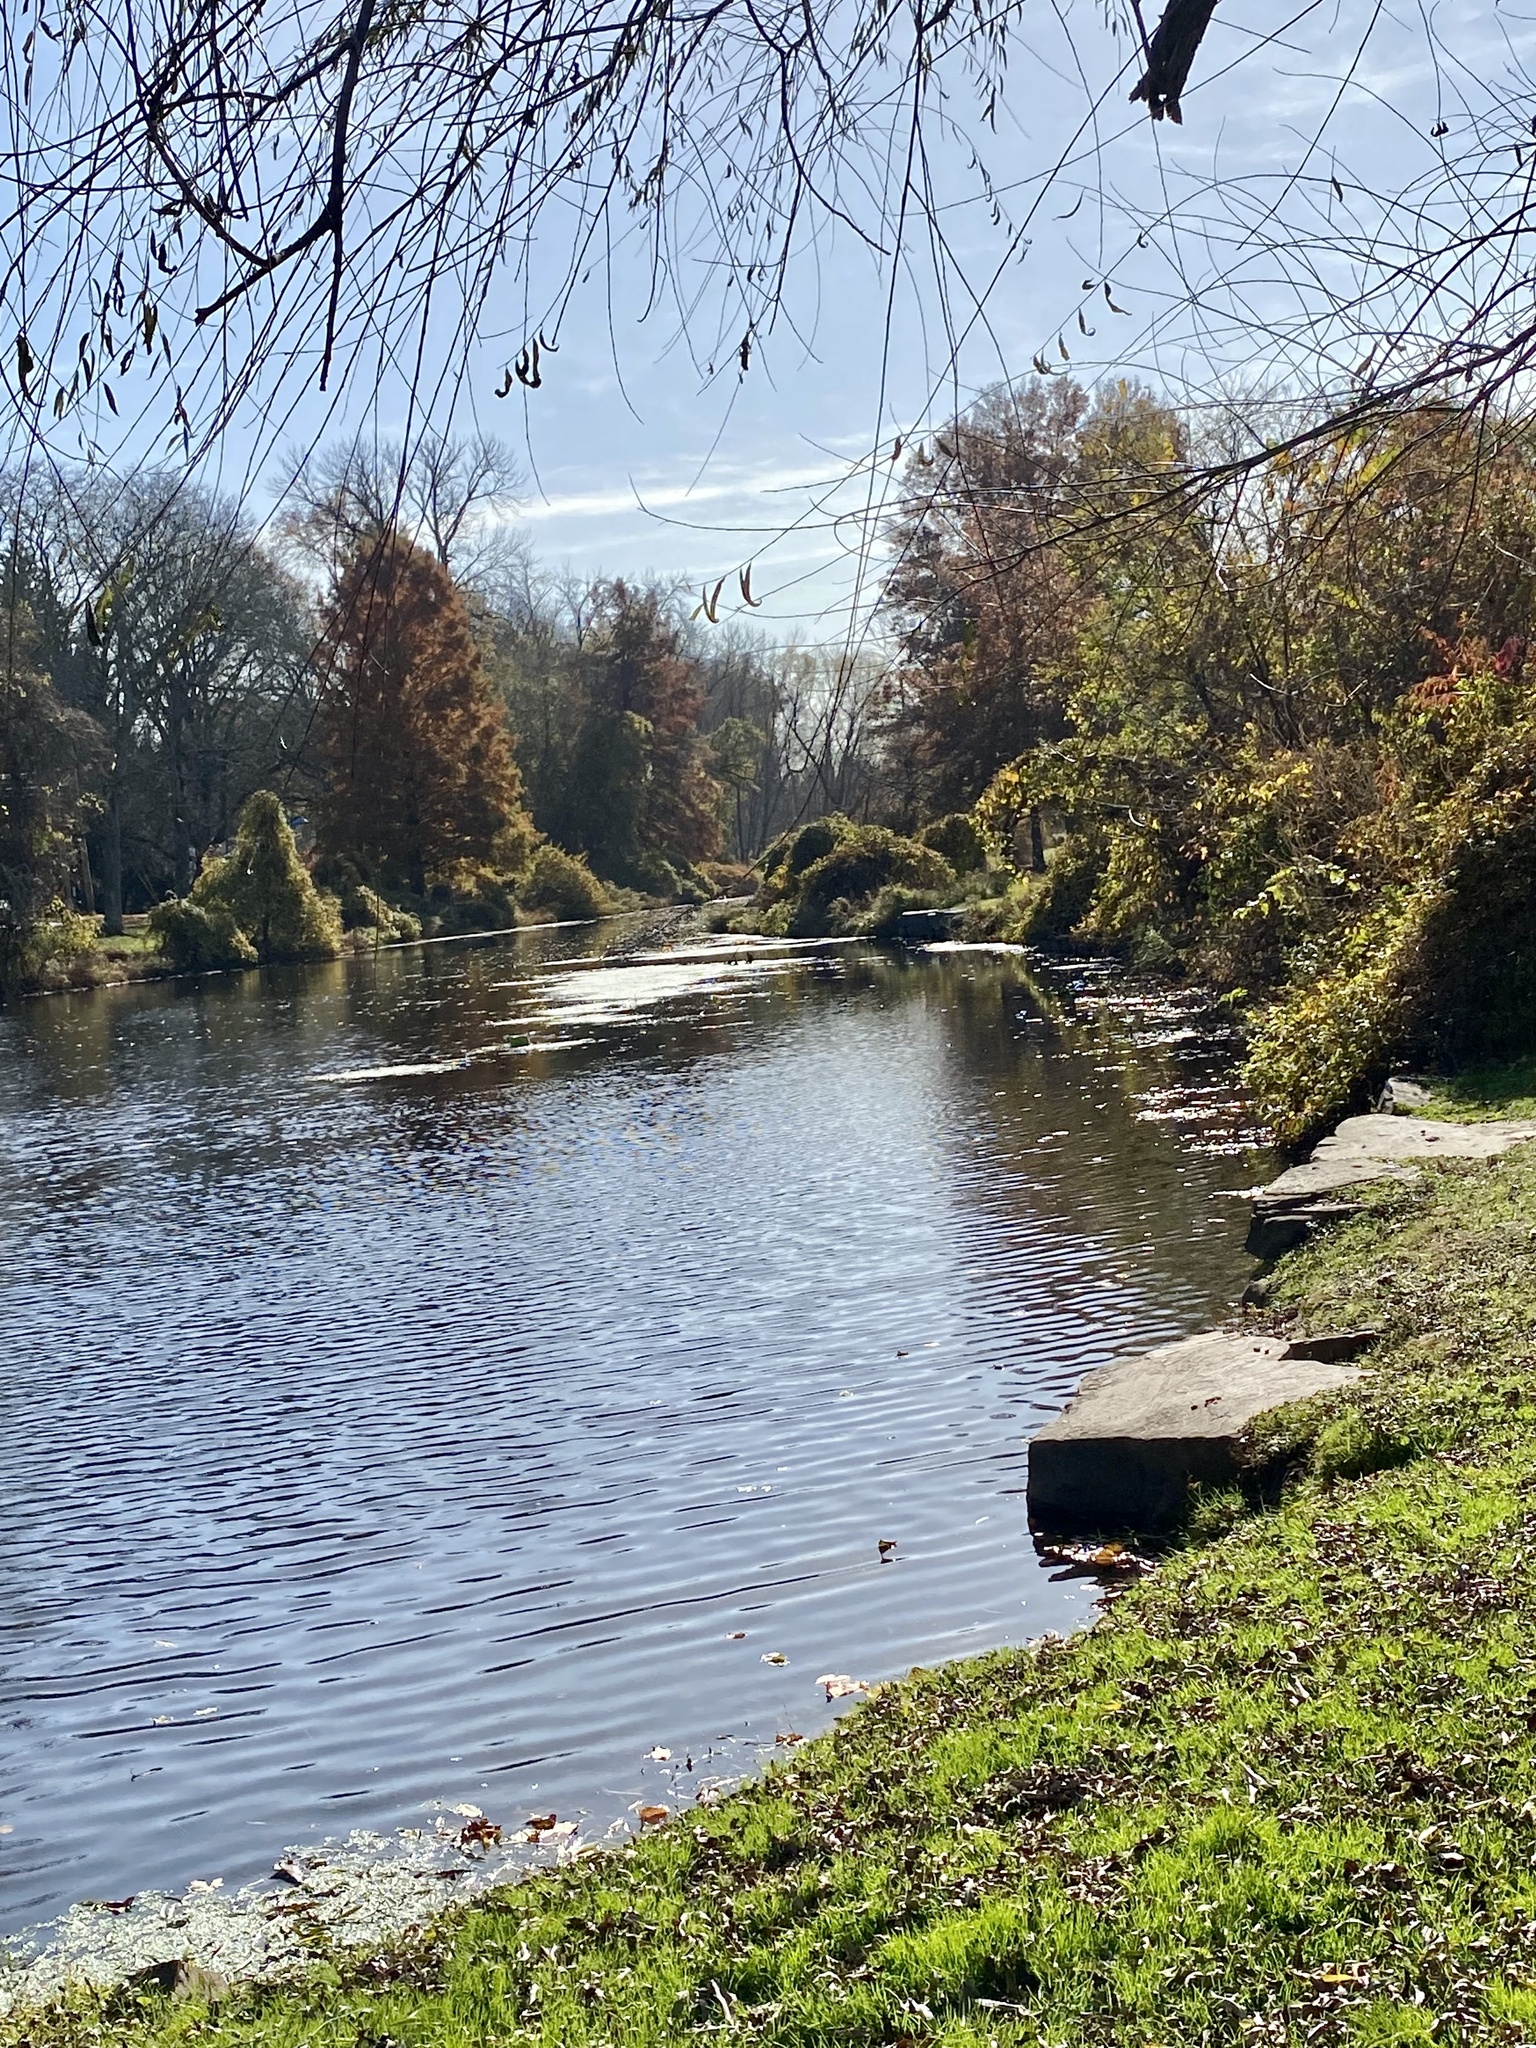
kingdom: Plantae
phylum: Tracheophyta
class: Magnoliopsida
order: Sapindales
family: Sapindaceae
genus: Acer
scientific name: Acer saccharinum
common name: Silver maple
